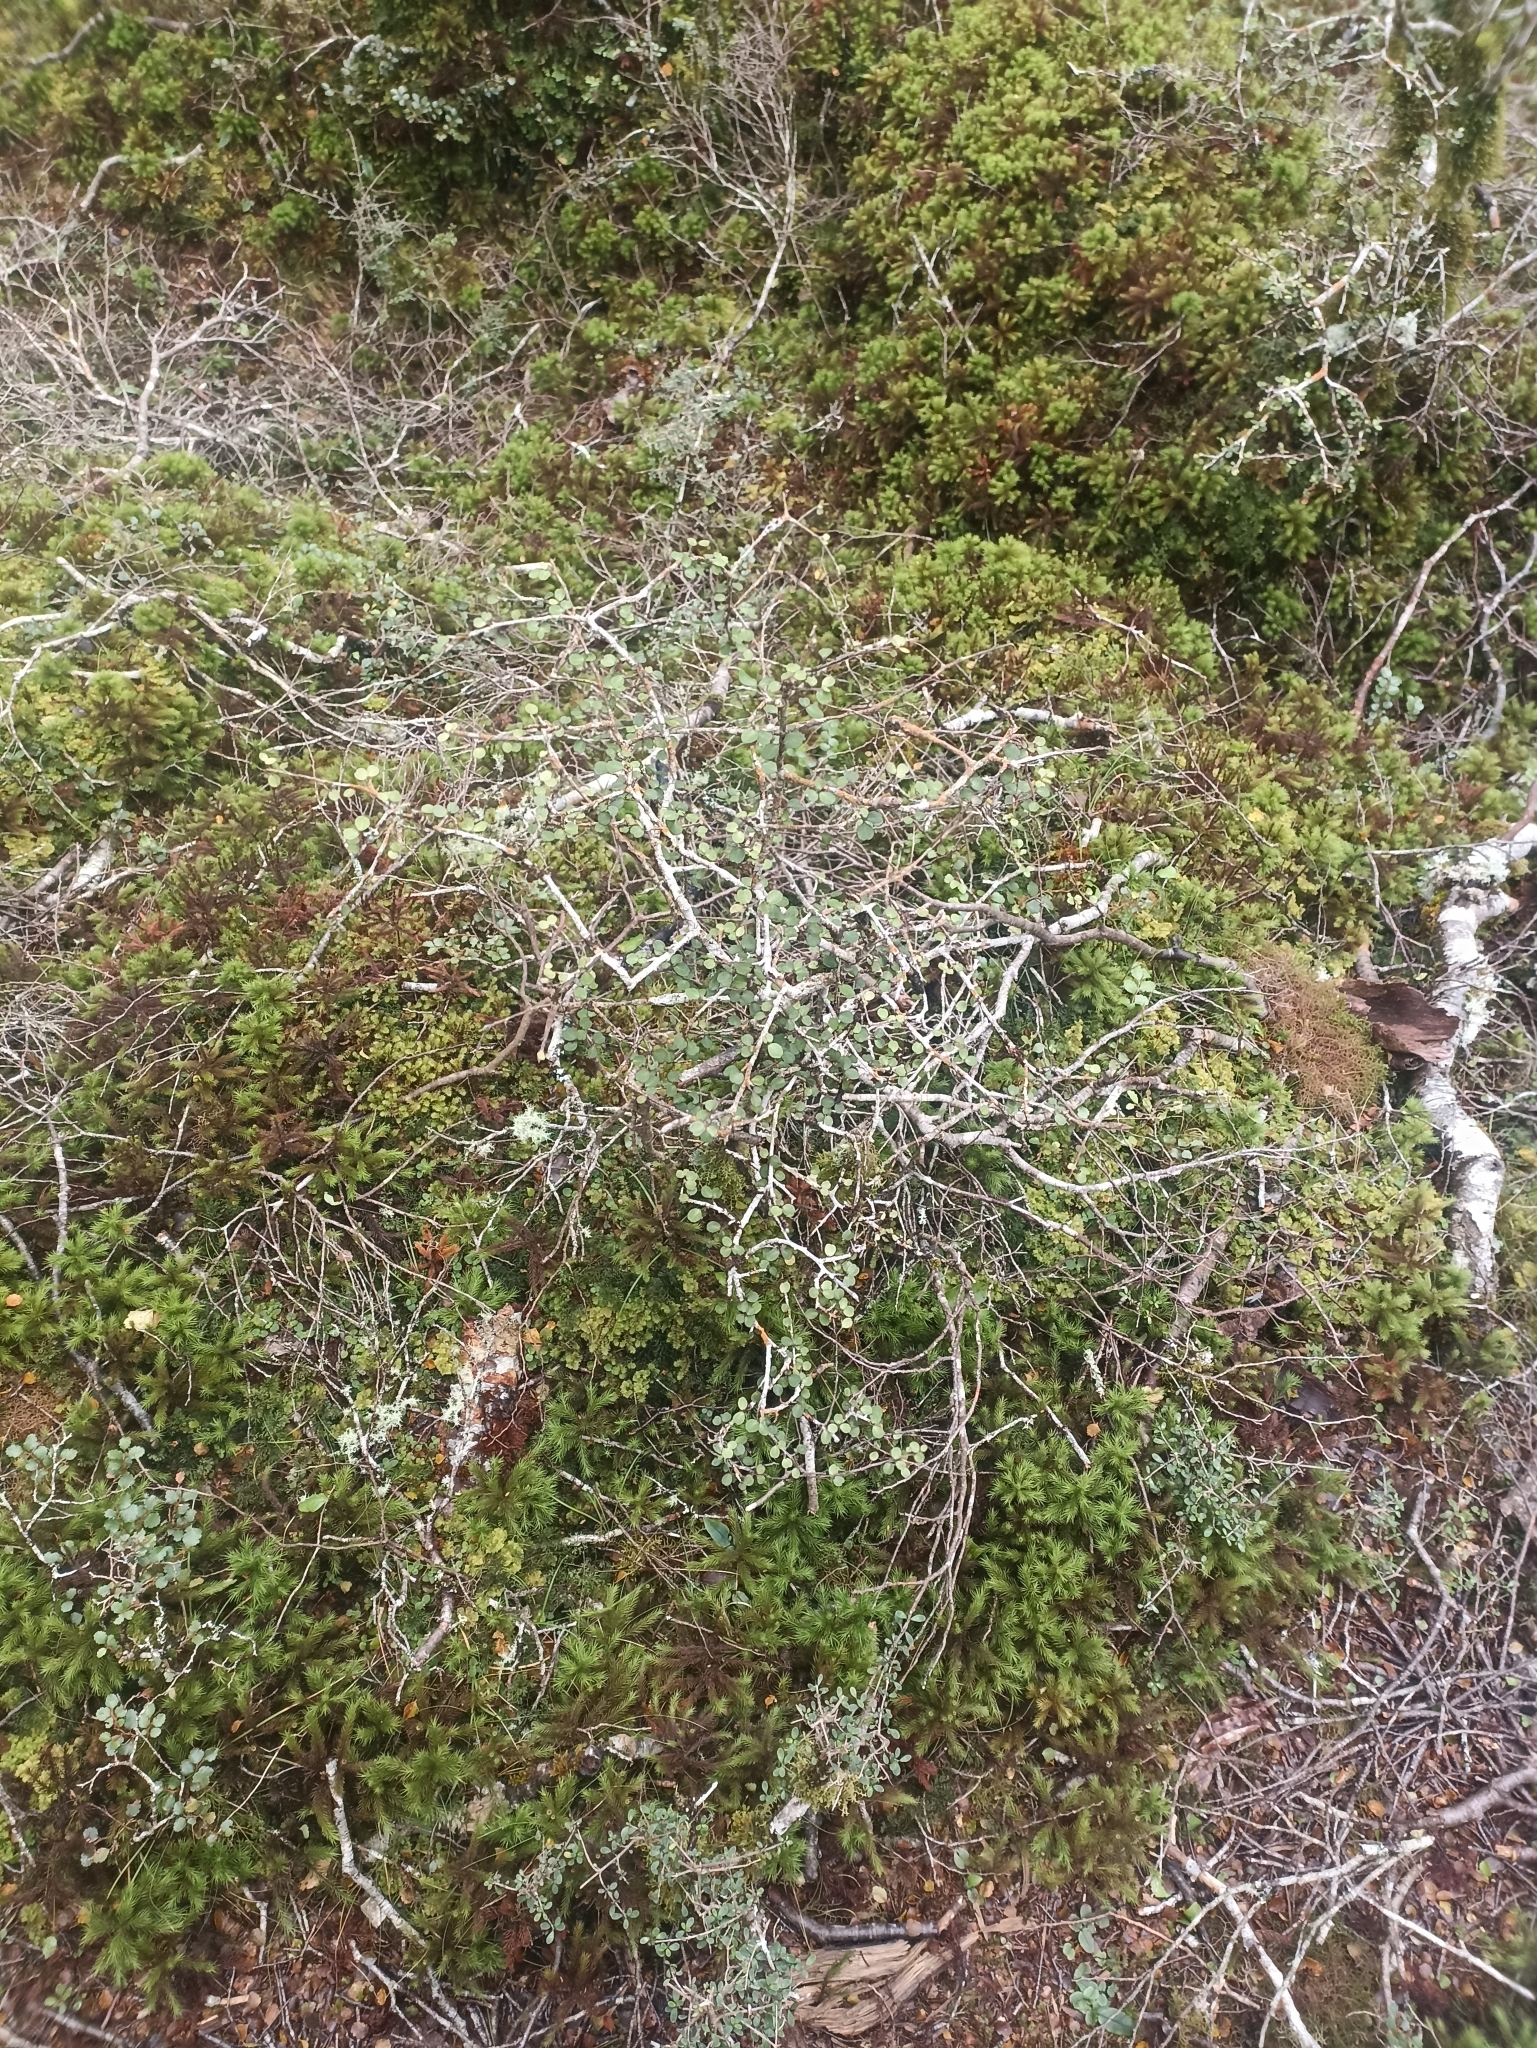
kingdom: Plantae
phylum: Tracheophyta
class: Magnoliopsida
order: Ericales
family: Primulaceae
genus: Myrsine
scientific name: Myrsine divaricata
